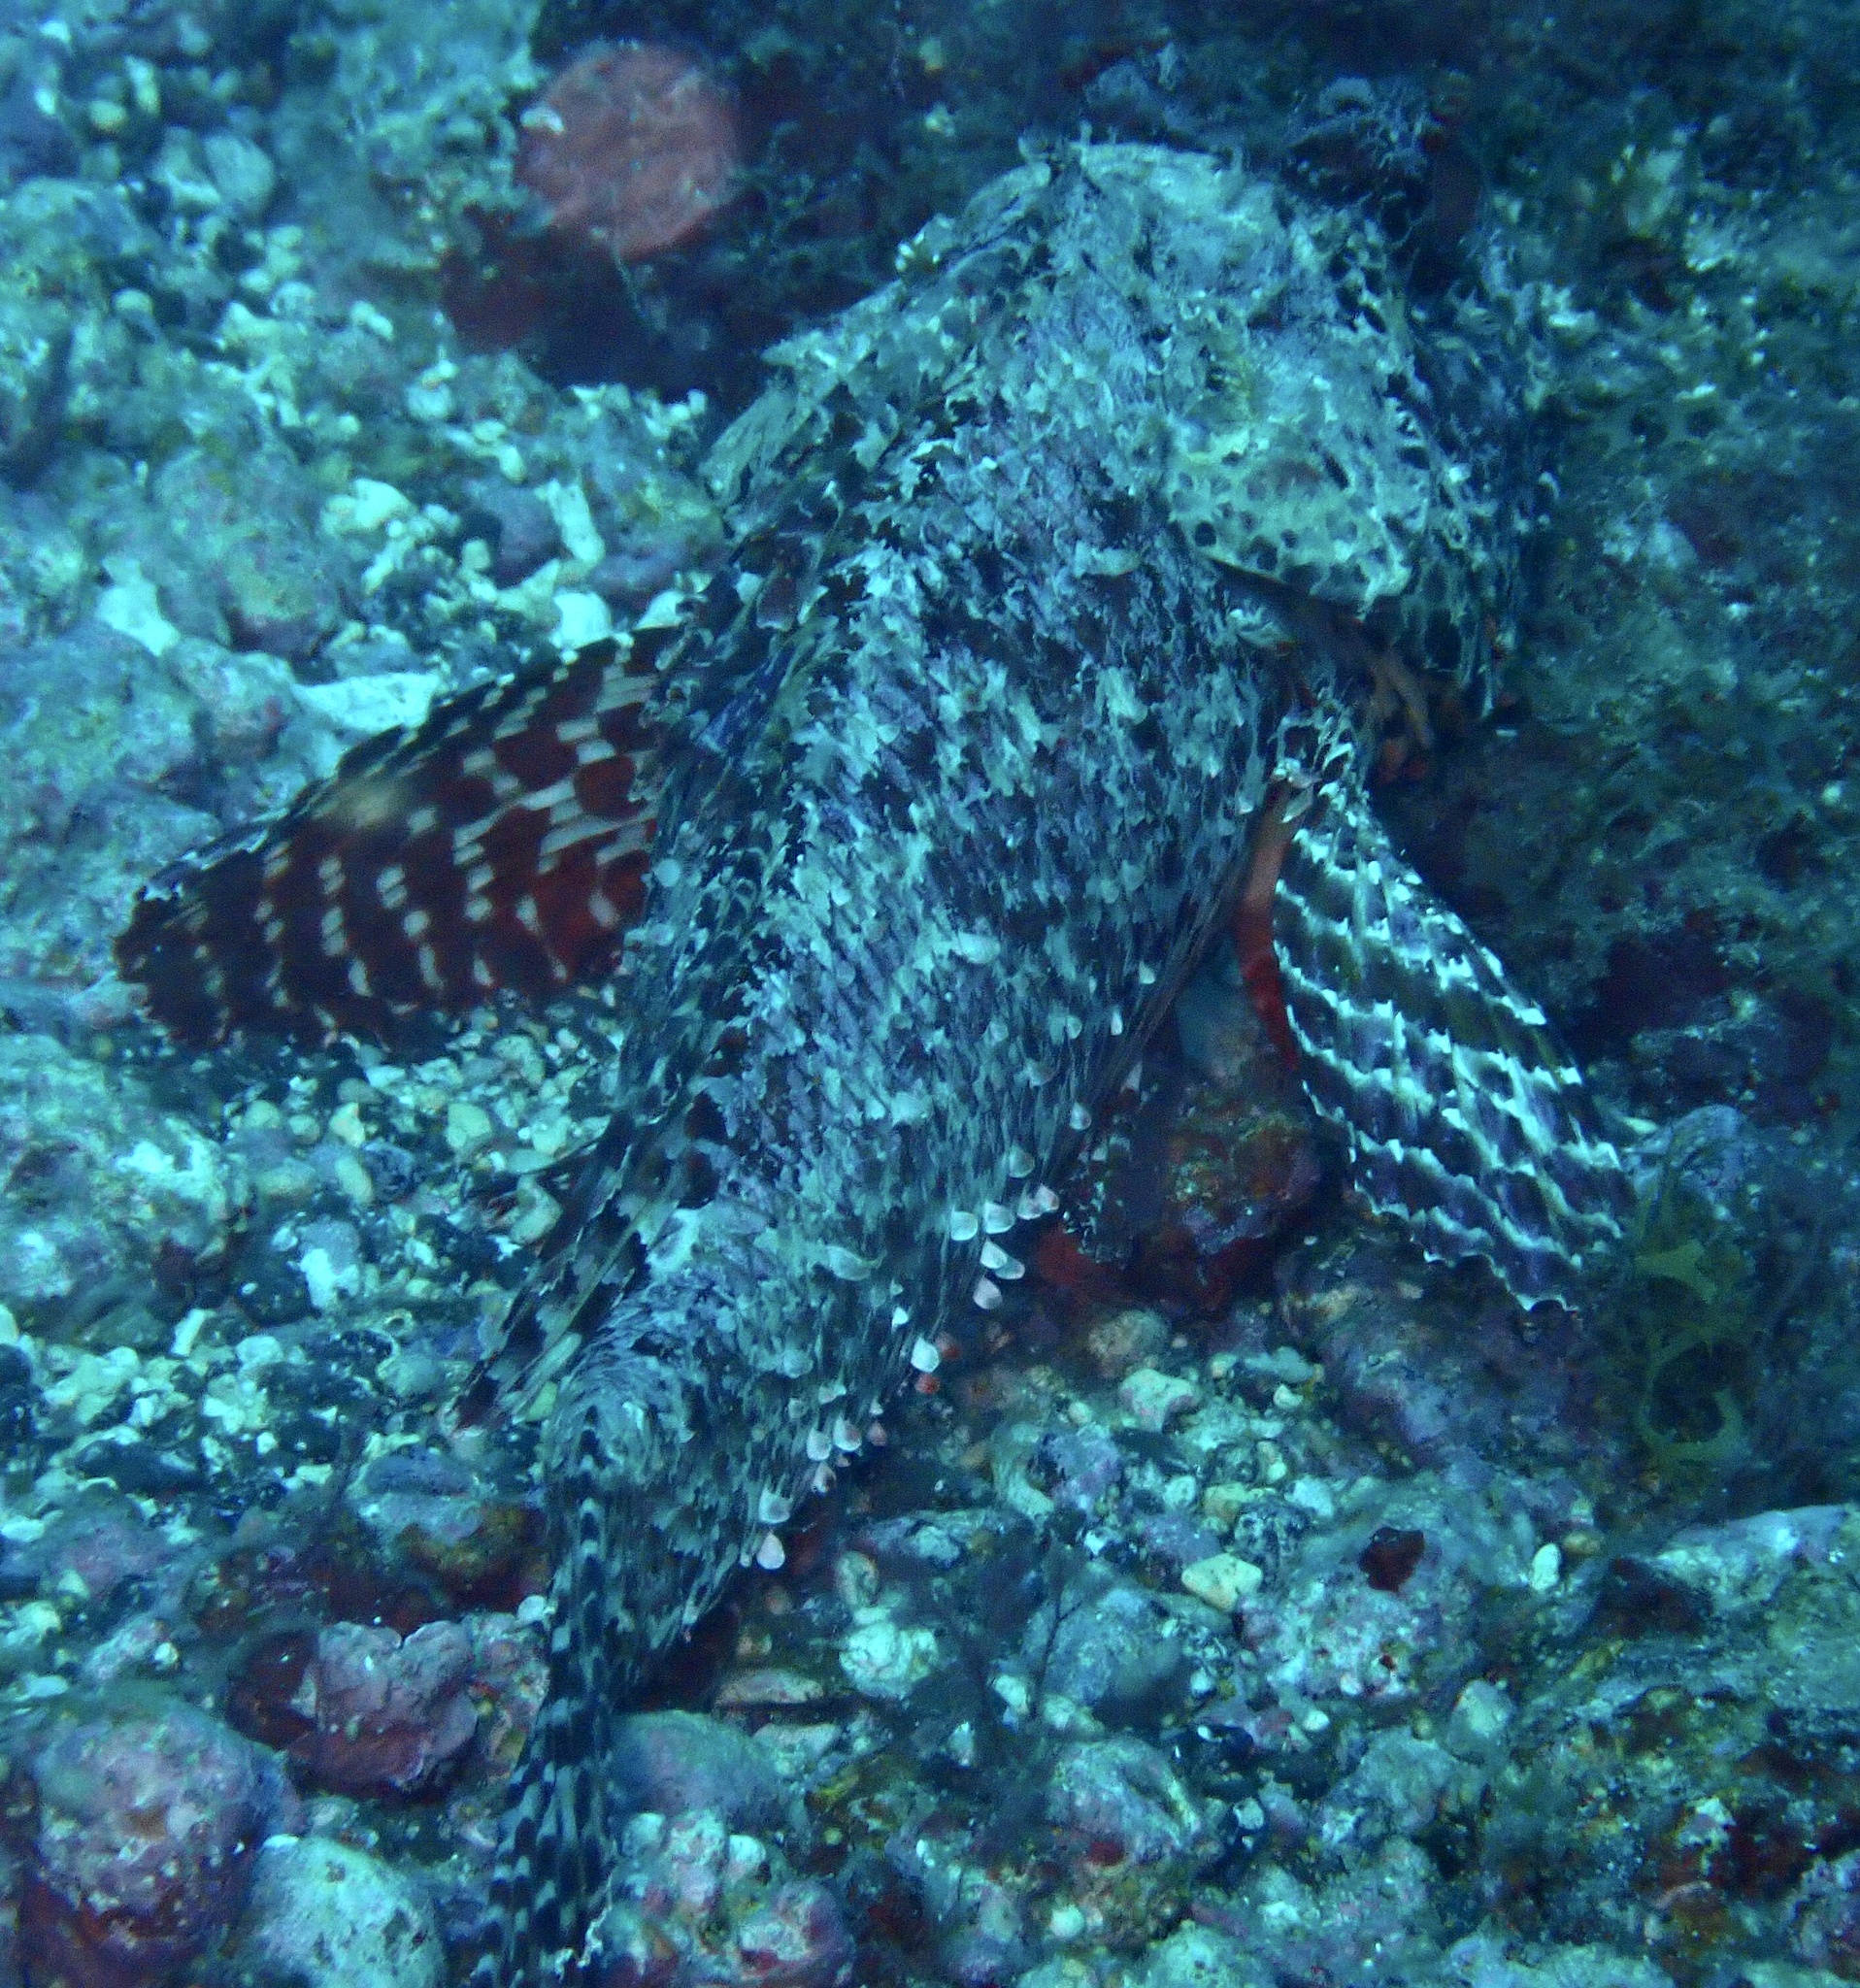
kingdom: Animalia
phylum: Chordata
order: Scorpaeniformes
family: Scorpaenidae
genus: Scorpaena
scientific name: Scorpaena laevis
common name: Senegalese rockfish
